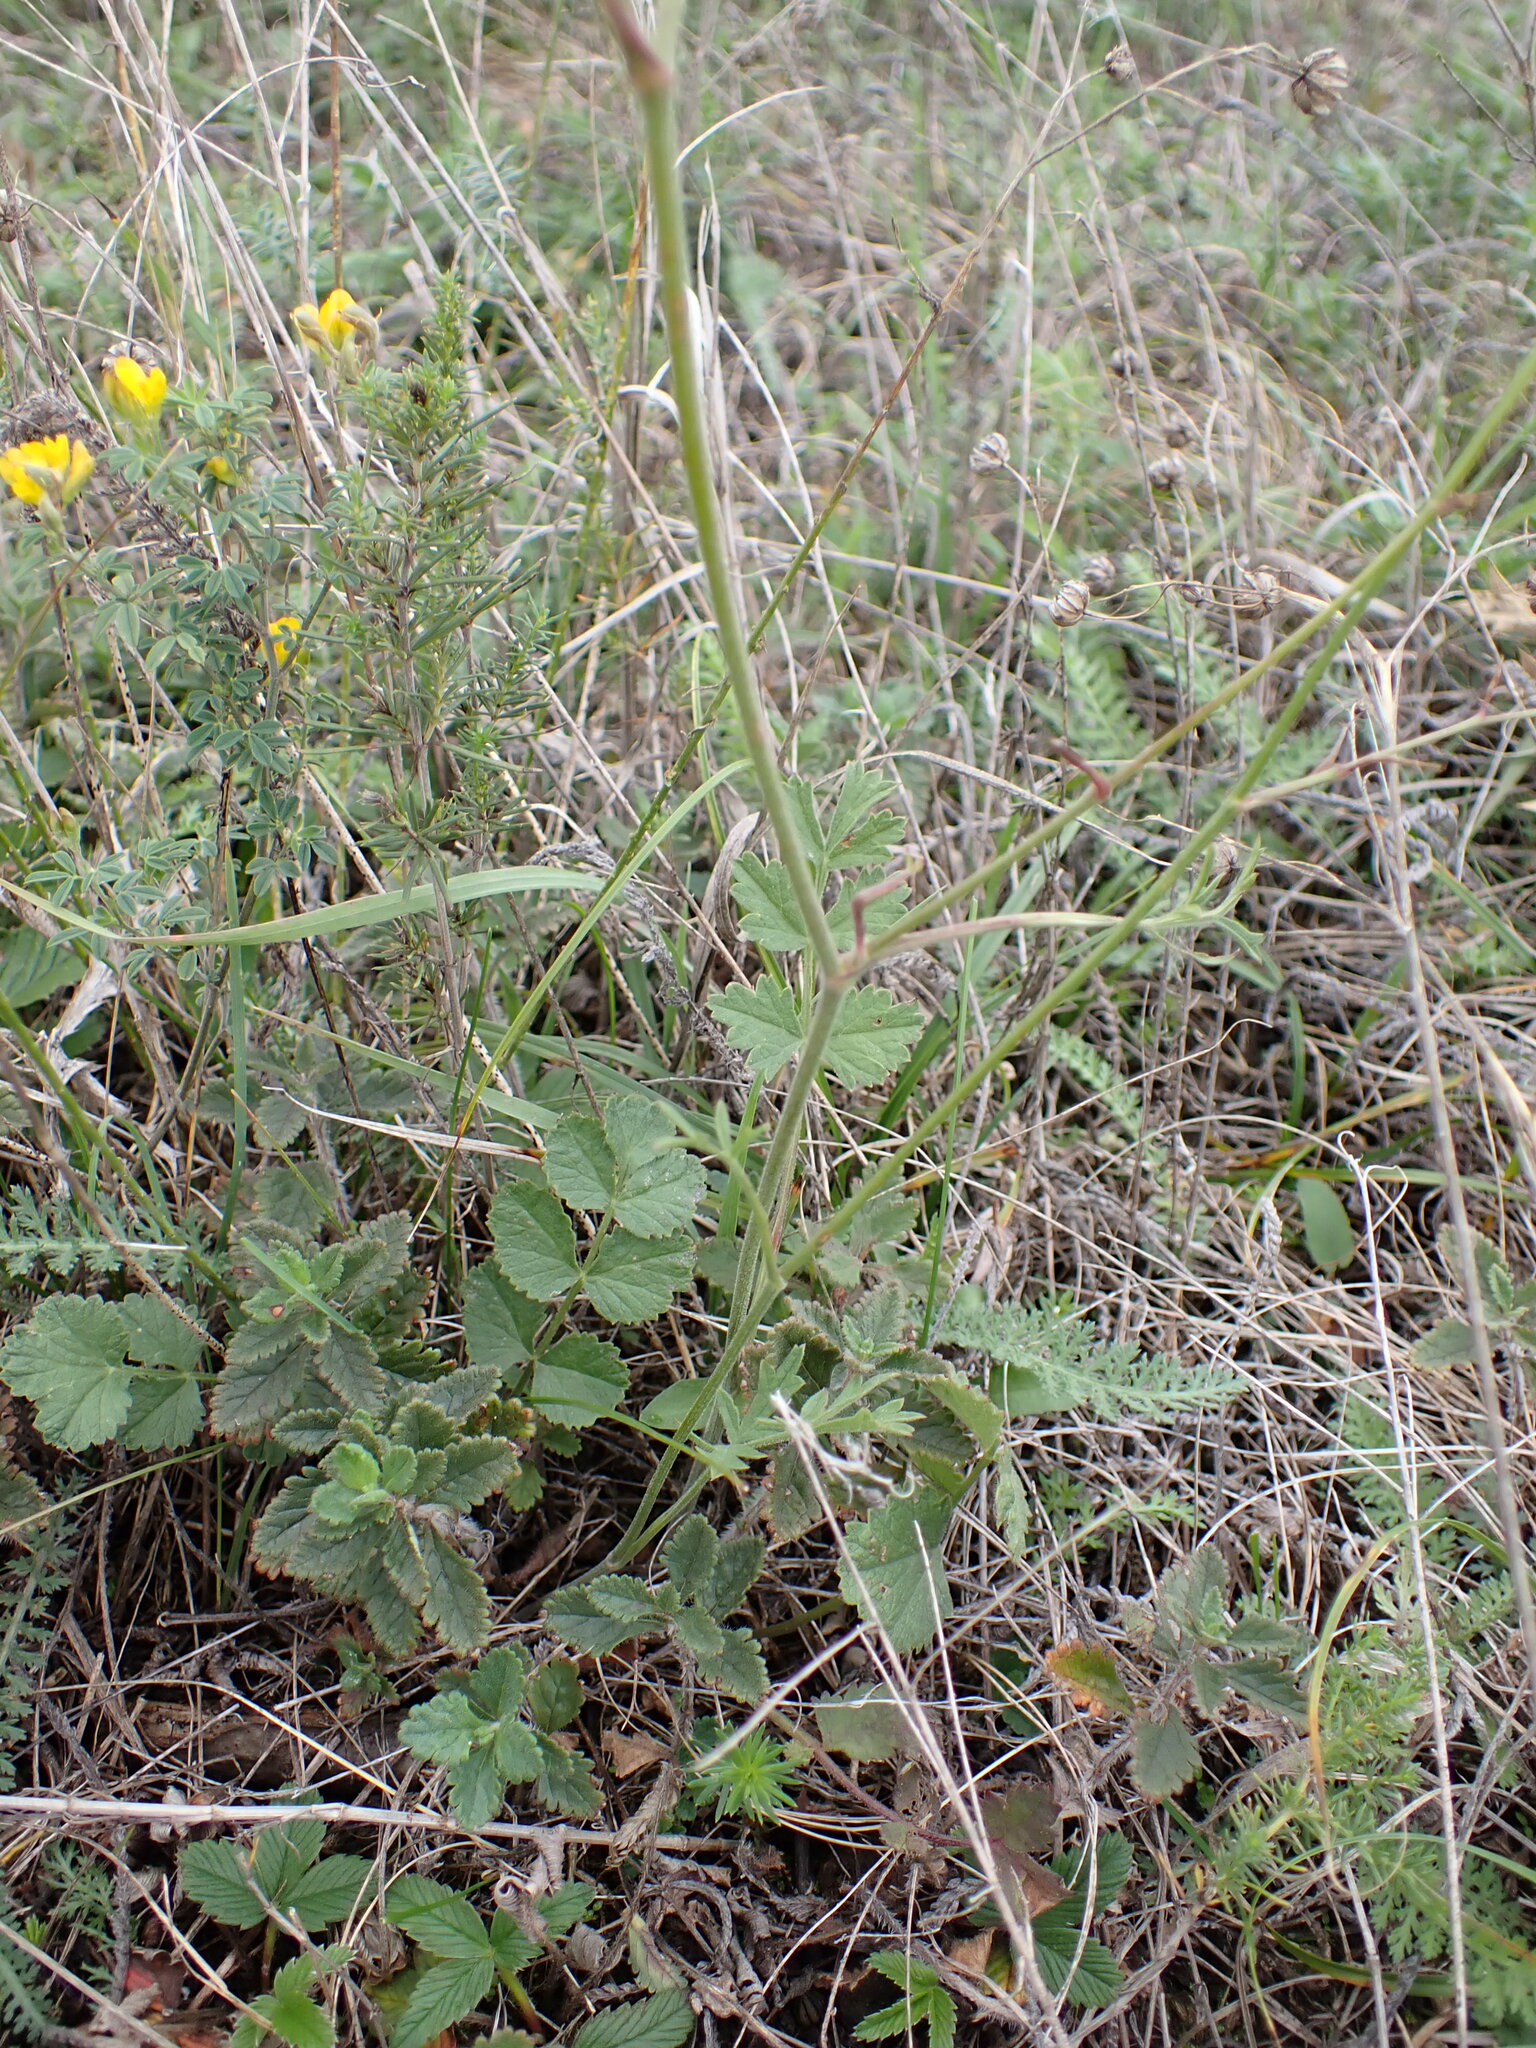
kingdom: Plantae
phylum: Tracheophyta
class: Magnoliopsida
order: Apiales
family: Apiaceae
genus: Pimpinella
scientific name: Pimpinella saxifraga
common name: Burnet-saxifrage
